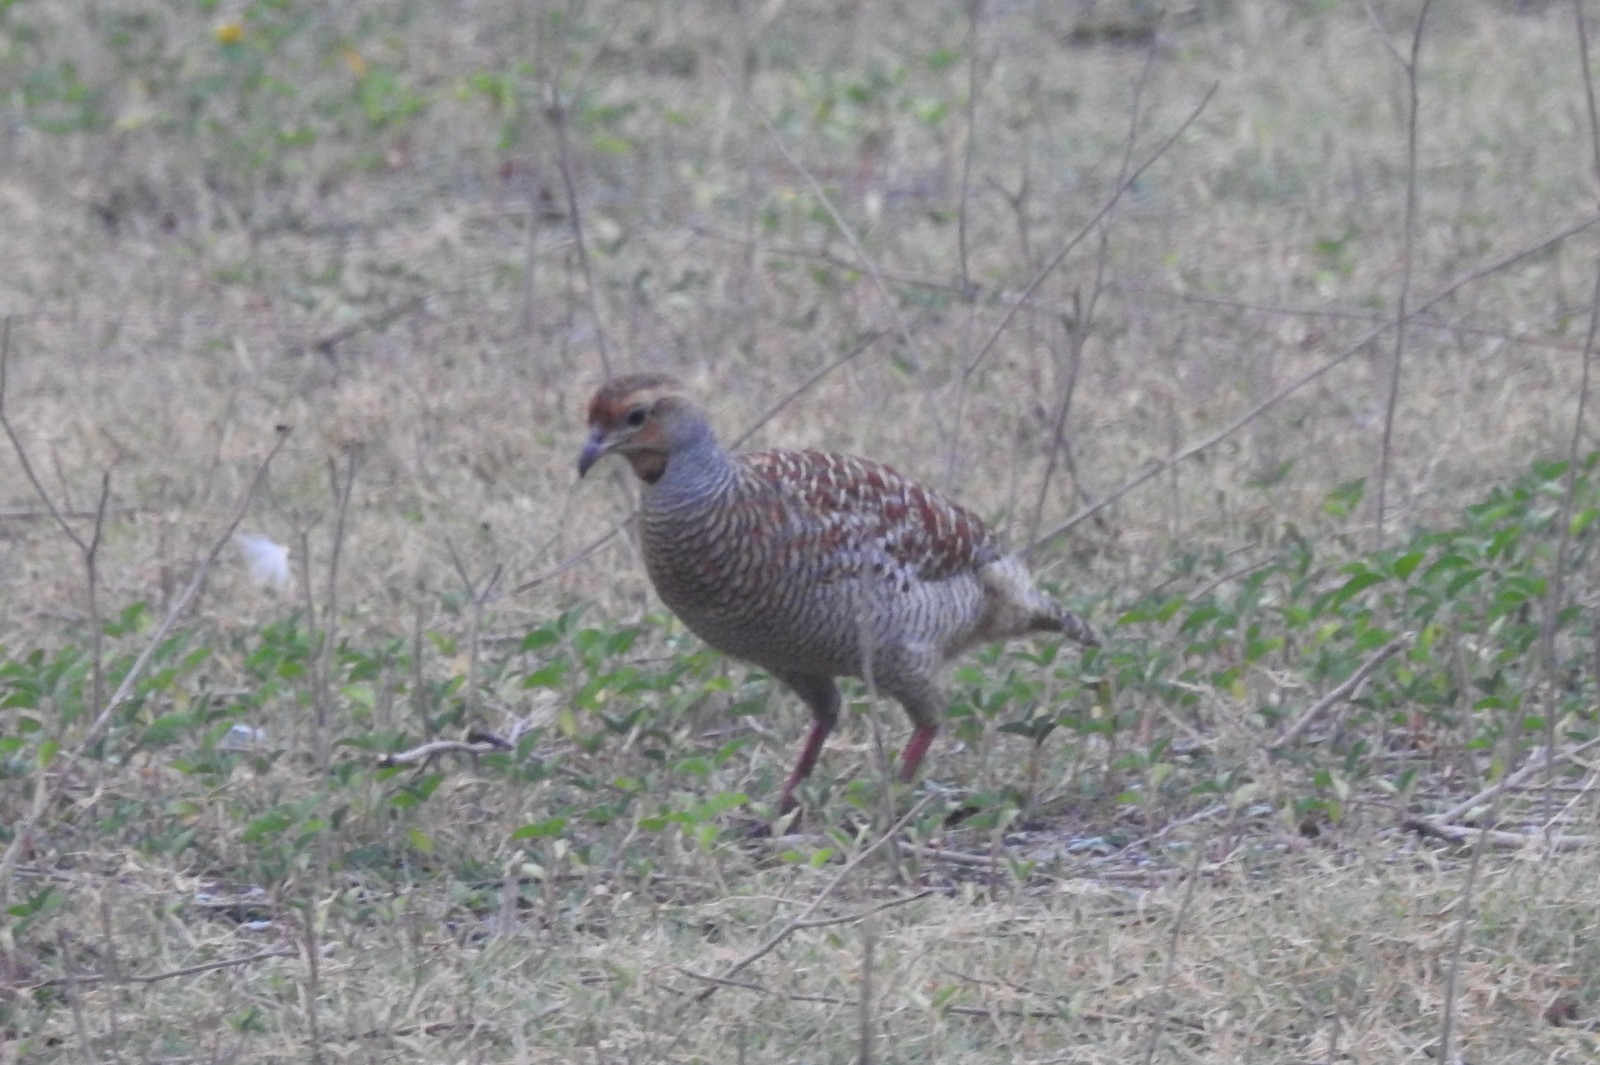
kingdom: Animalia
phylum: Chordata
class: Aves
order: Galliformes
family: Phasianidae
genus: Ortygornis
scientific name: Ortygornis pondicerianus
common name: Grey francolin
